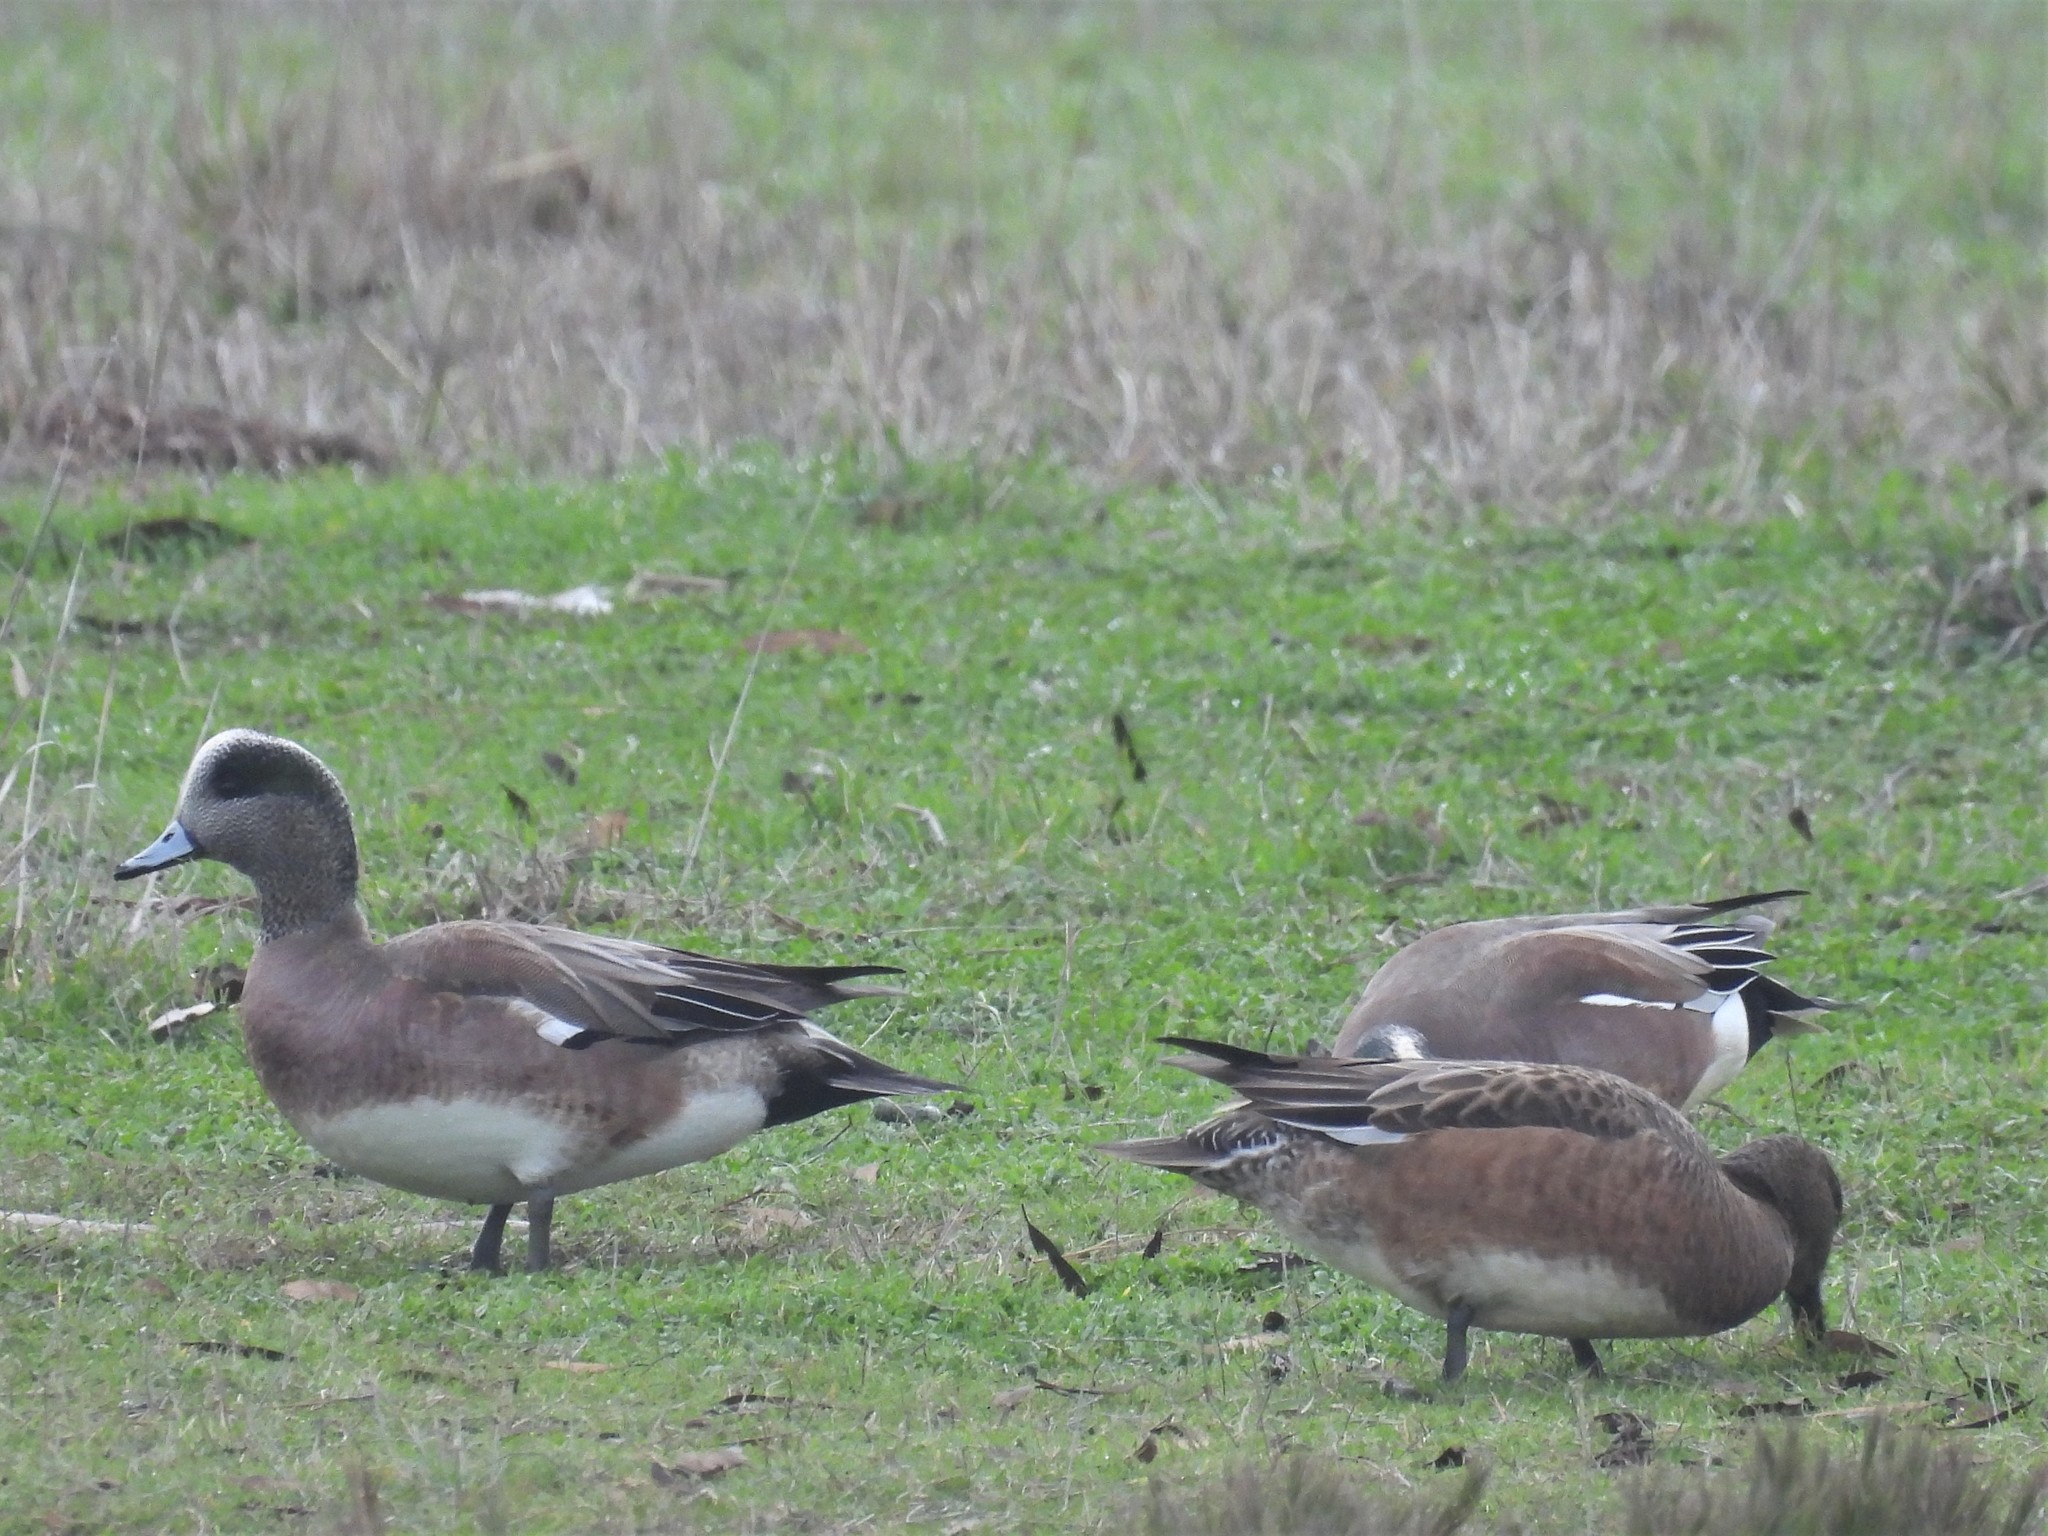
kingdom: Animalia
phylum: Chordata
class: Aves
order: Anseriformes
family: Anatidae
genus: Mareca
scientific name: Mareca americana
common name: American wigeon
